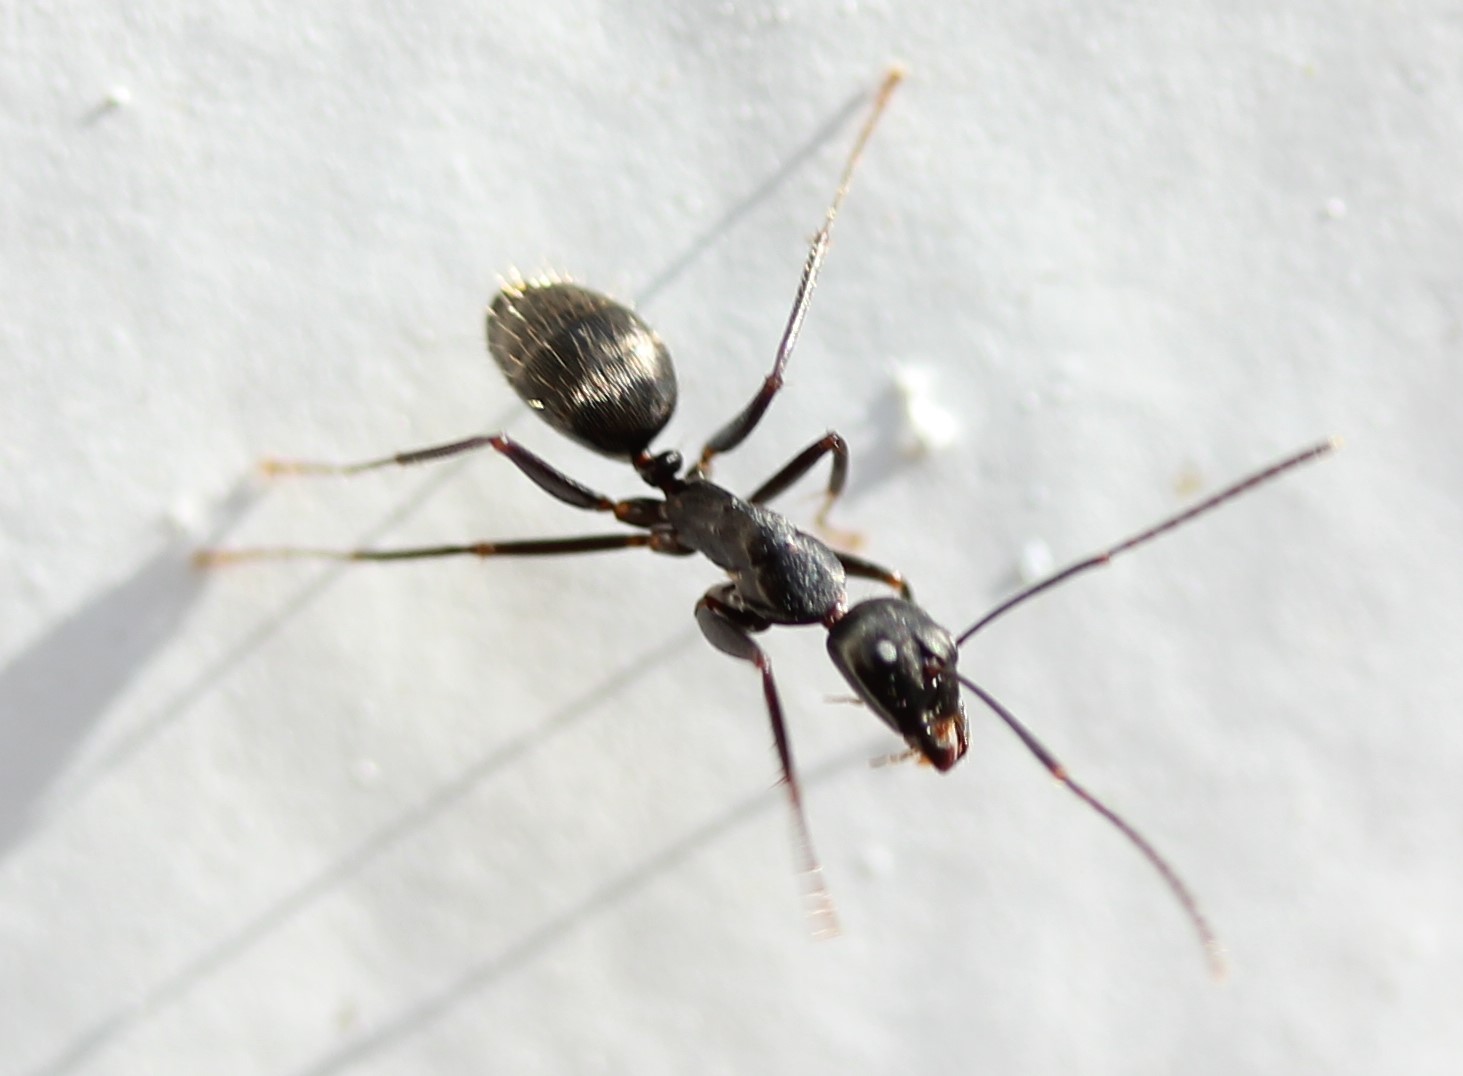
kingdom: Animalia
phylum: Arthropoda
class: Insecta
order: Hymenoptera
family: Formicidae
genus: Camponotus
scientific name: Camponotus pennsylvanicus
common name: Black carpenter ant
